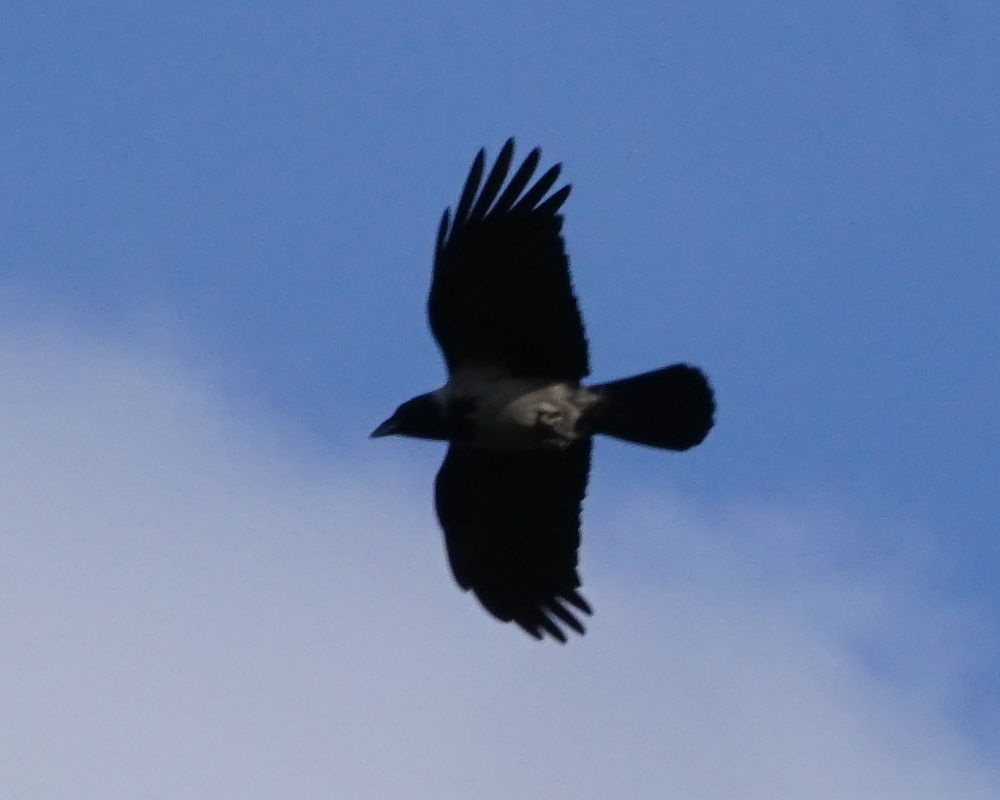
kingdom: Animalia
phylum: Chordata
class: Aves
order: Passeriformes
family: Corvidae
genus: Corvus
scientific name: Corvus cornix
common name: Hooded crow
